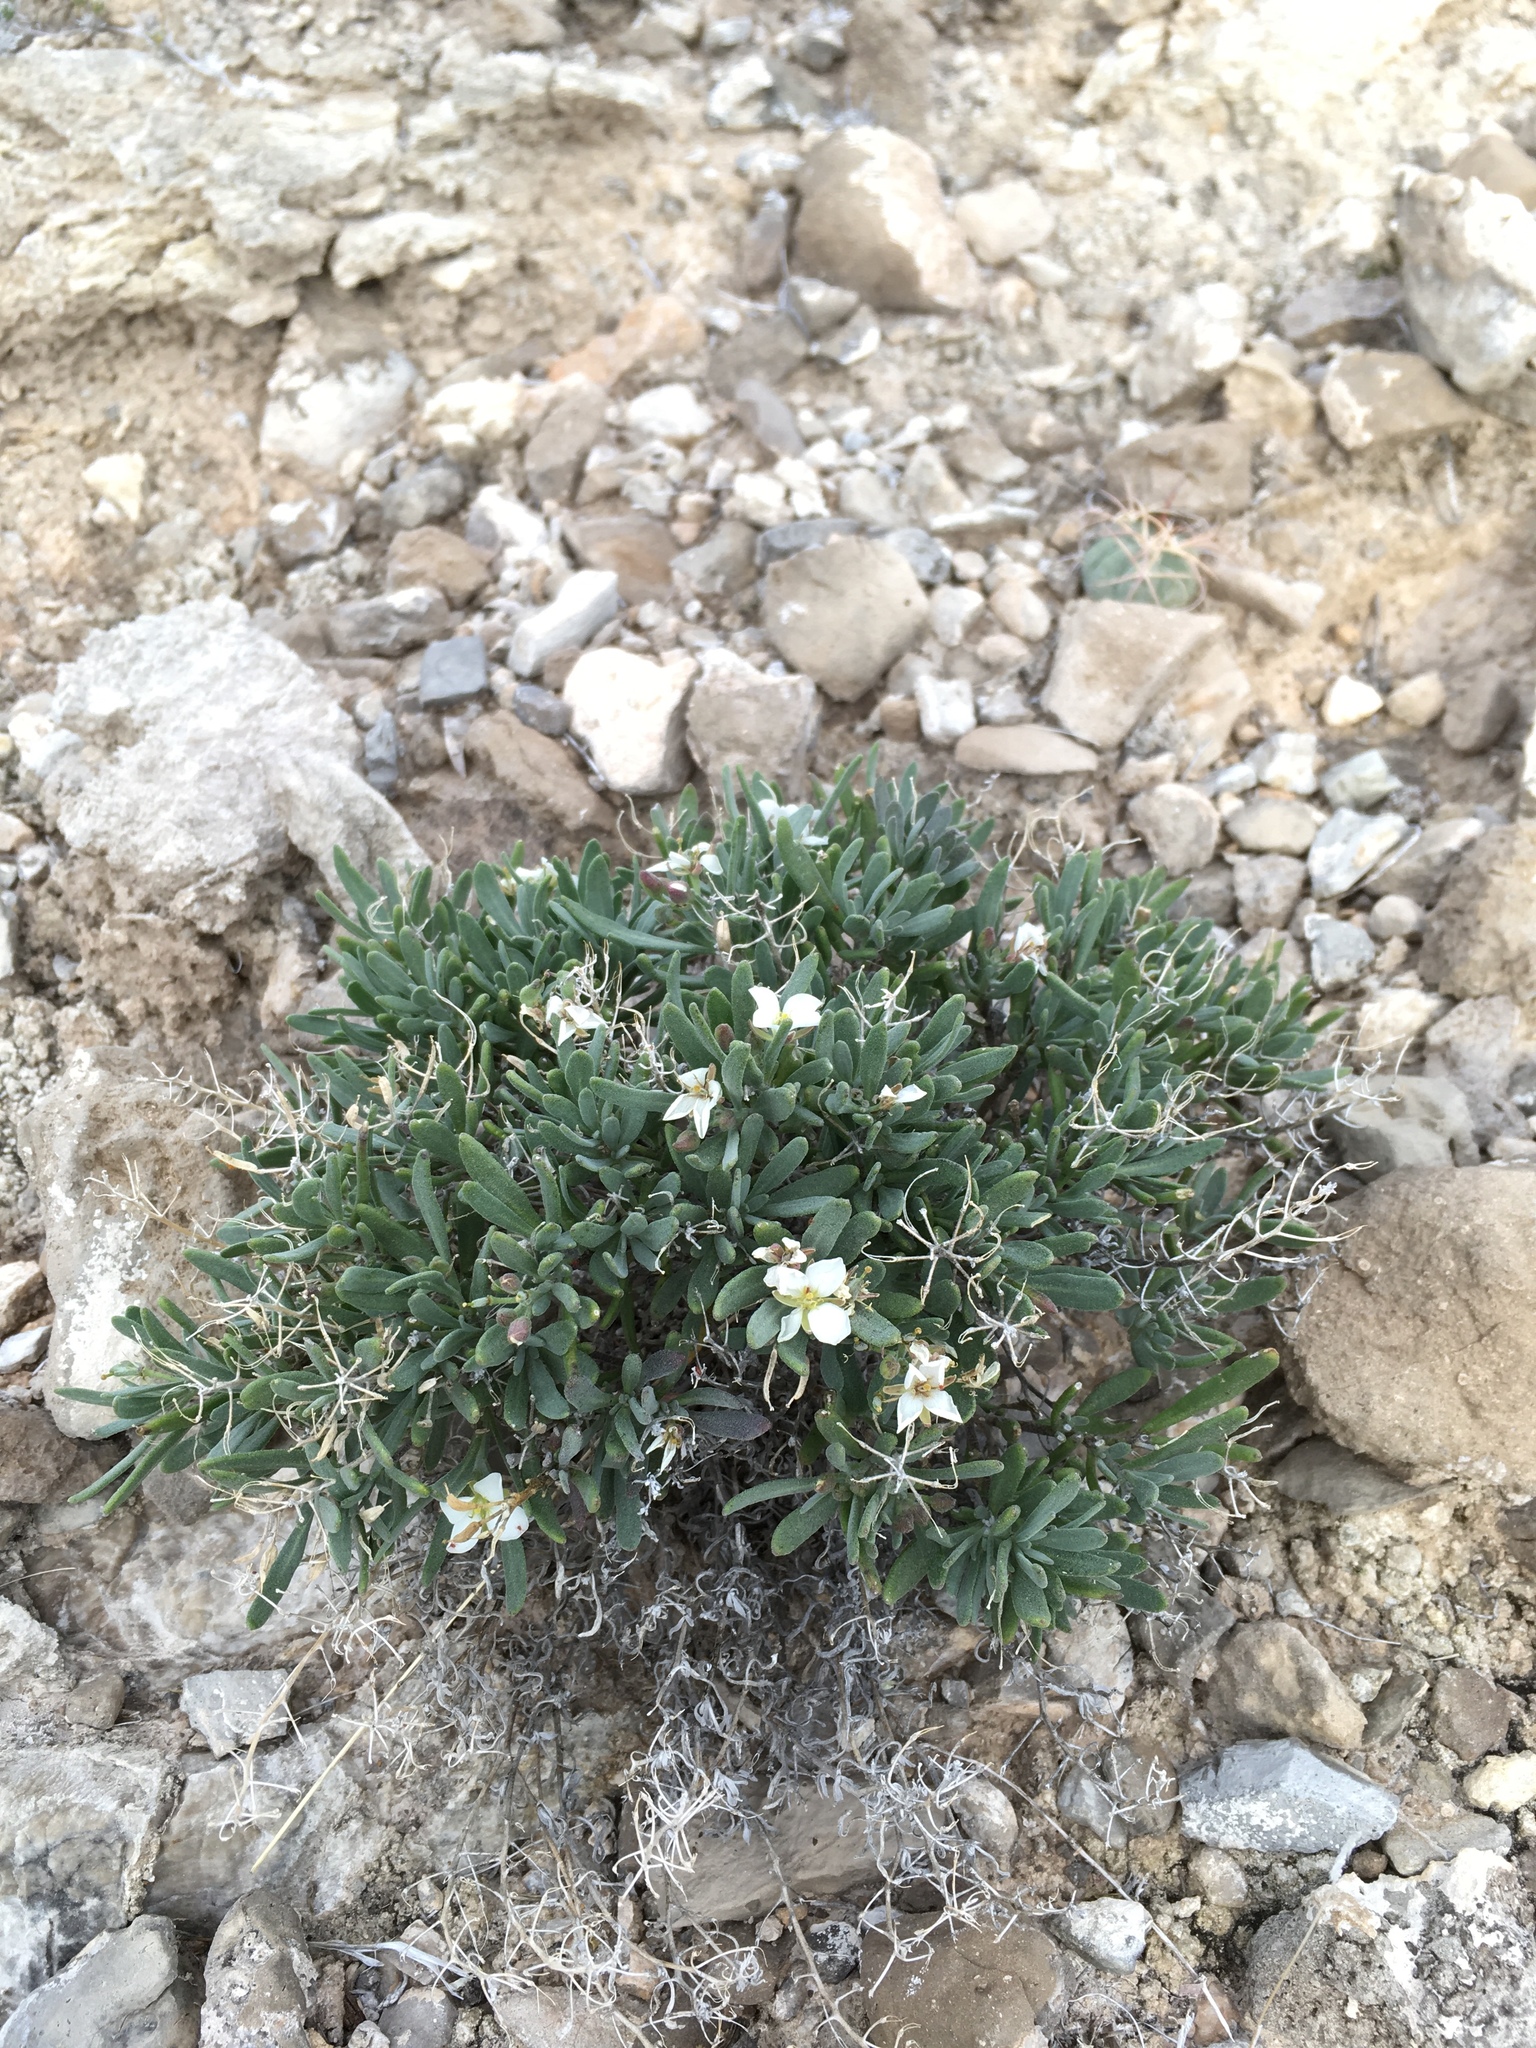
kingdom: Plantae
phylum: Tracheophyta
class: Magnoliopsida
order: Brassicales
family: Brassicaceae
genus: Nerisyrenia
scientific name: Nerisyrenia hypercorax
